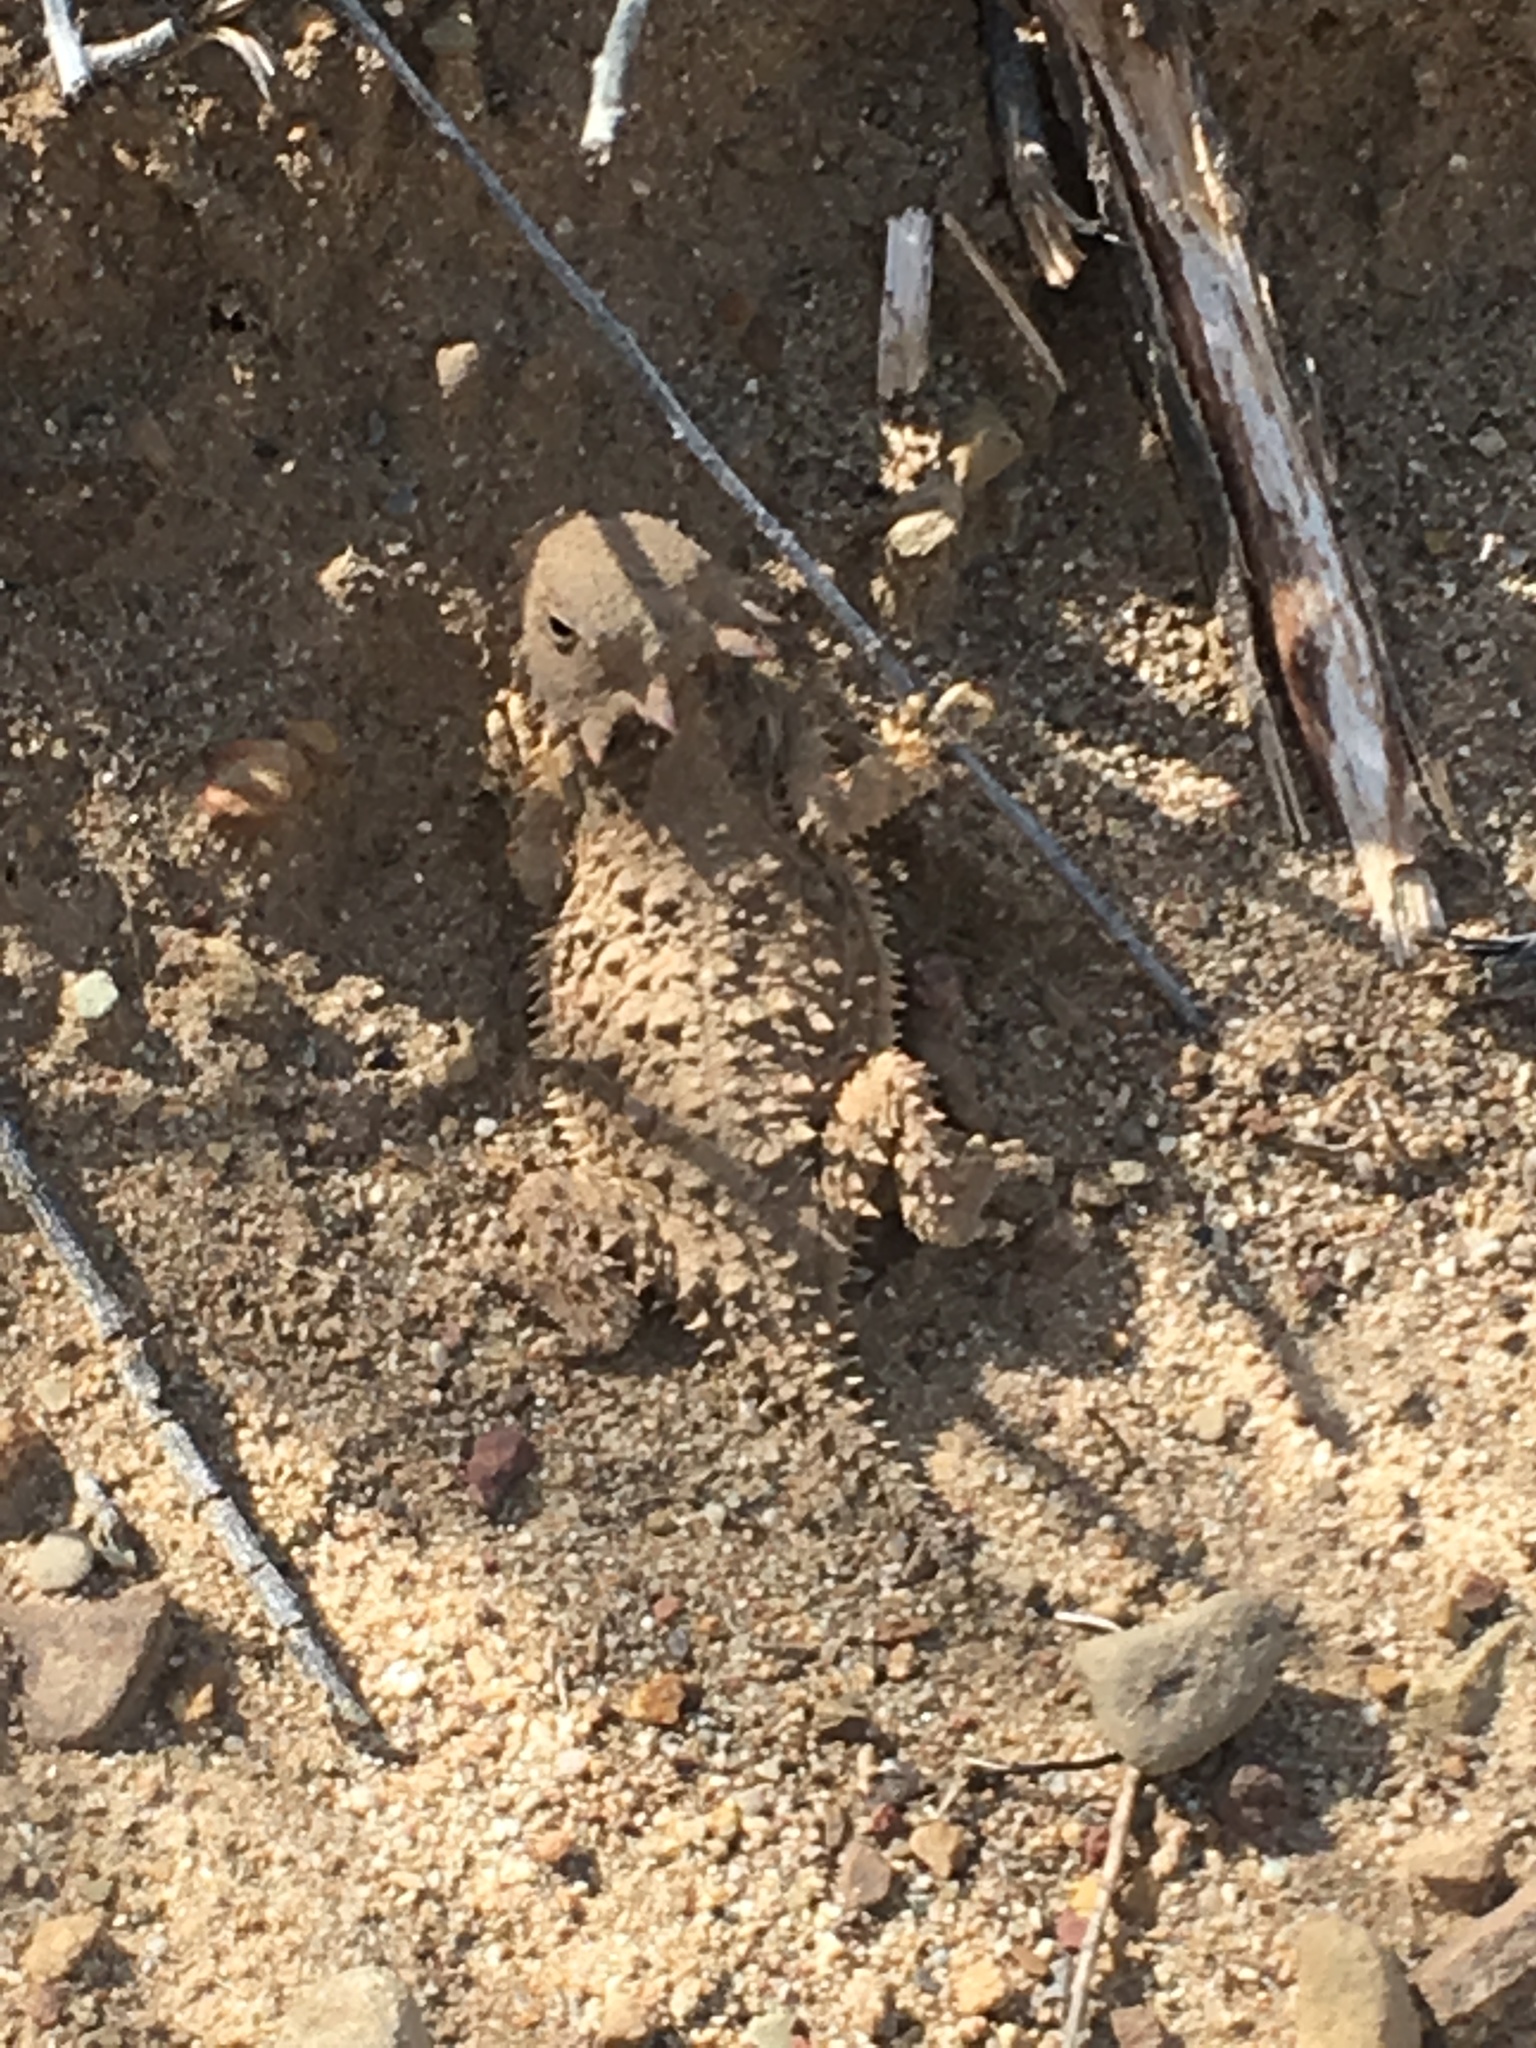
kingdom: Animalia
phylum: Chordata
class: Squamata
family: Phrynosomatidae
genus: Phrynosoma
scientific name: Phrynosoma blainvillii
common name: San diego horned lizard
